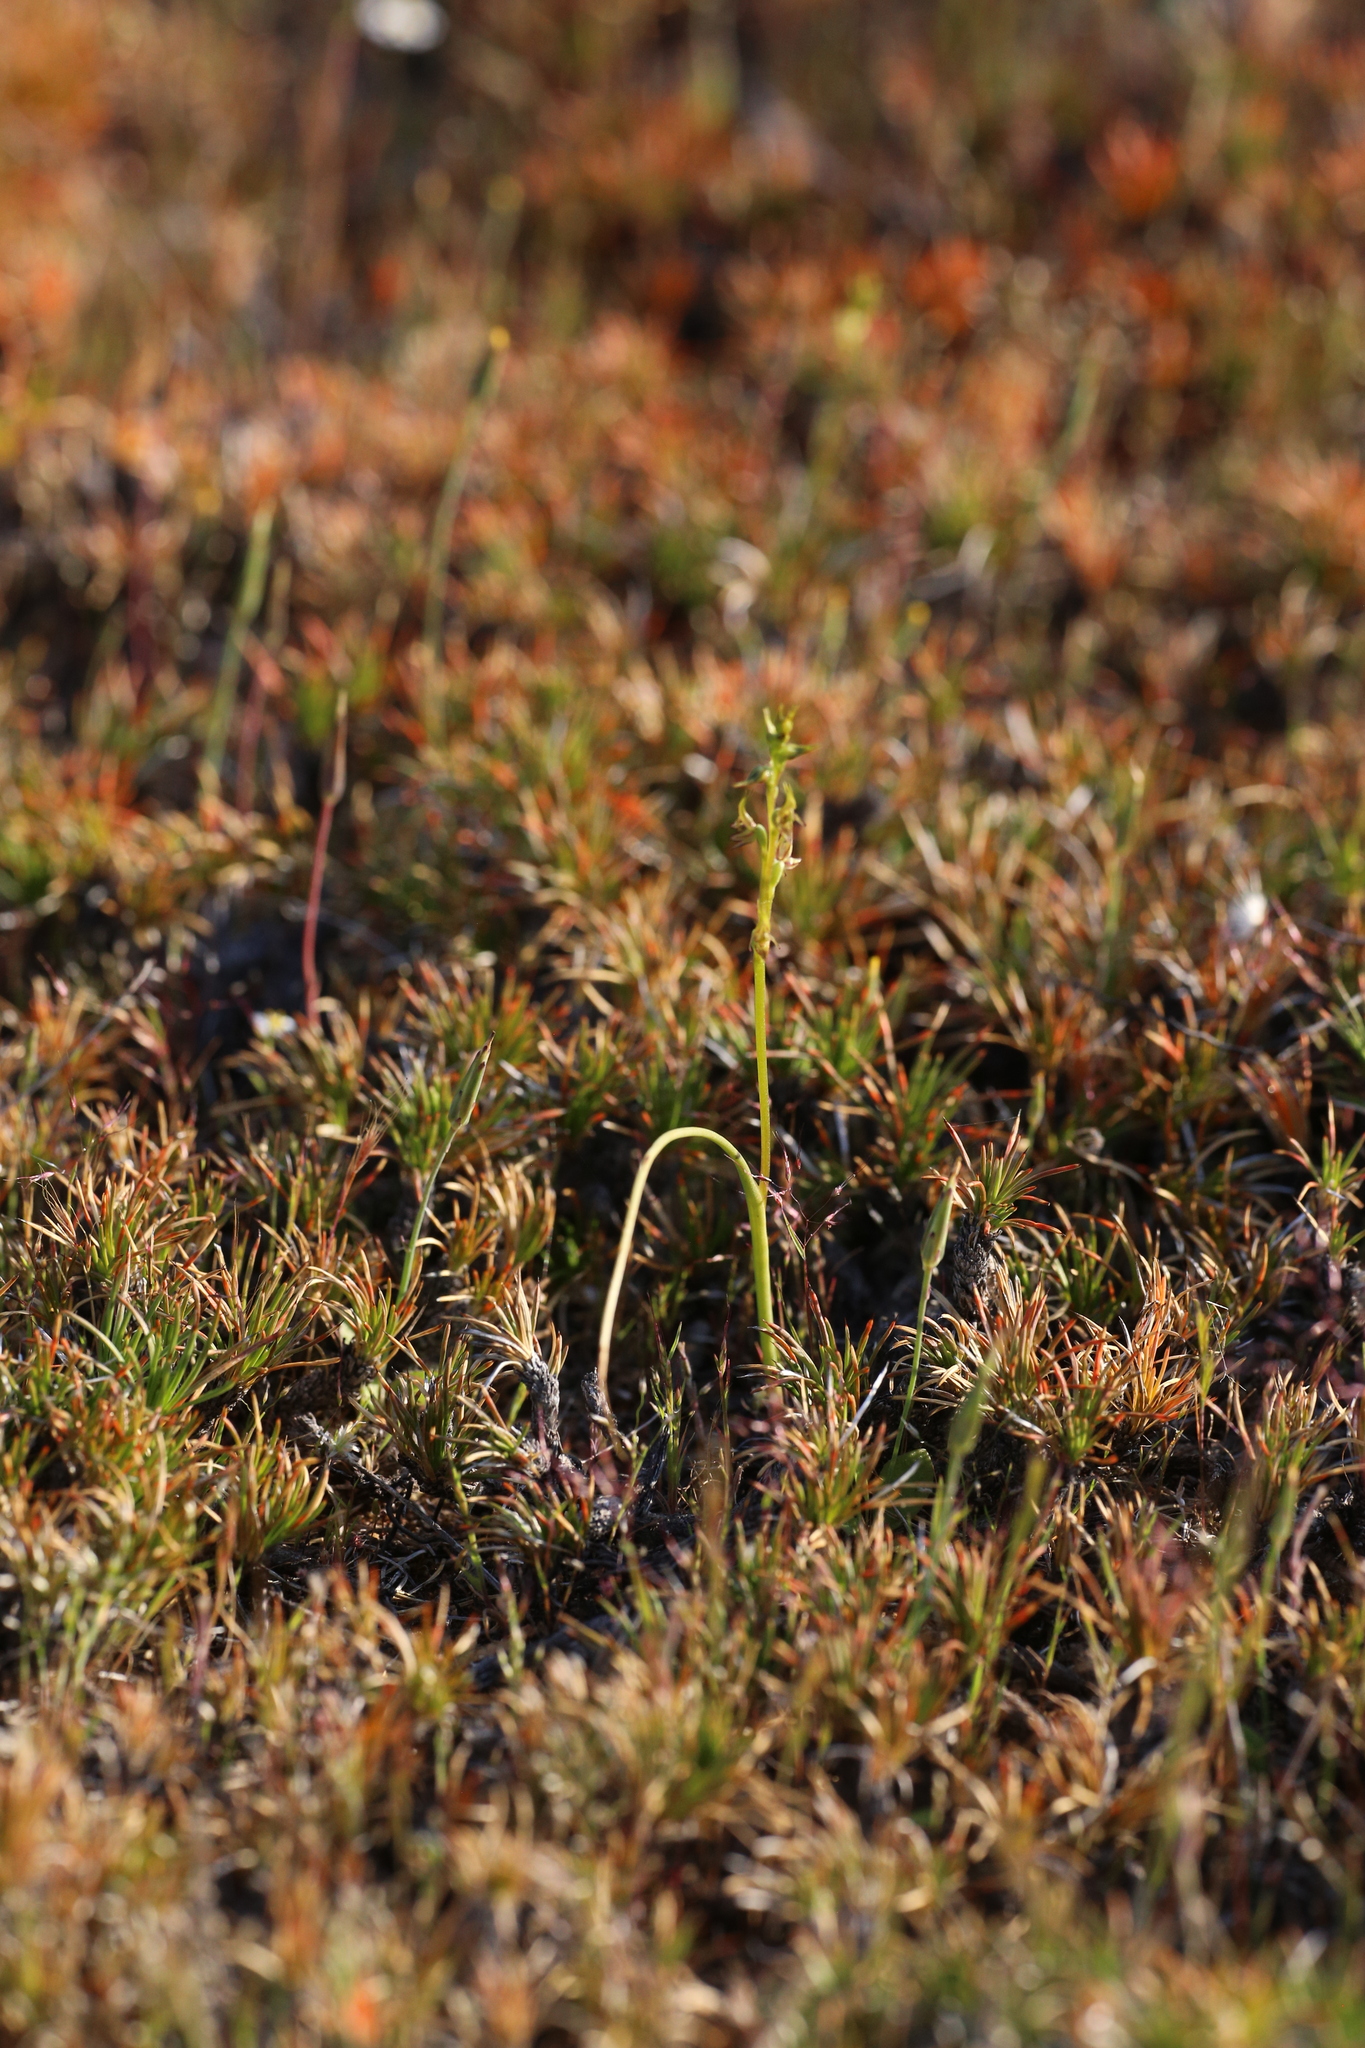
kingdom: Plantae
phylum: Tracheophyta
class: Liliopsida
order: Asparagales
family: Orchidaceae
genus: Prasophyllum
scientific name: Prasophyllum gracile
